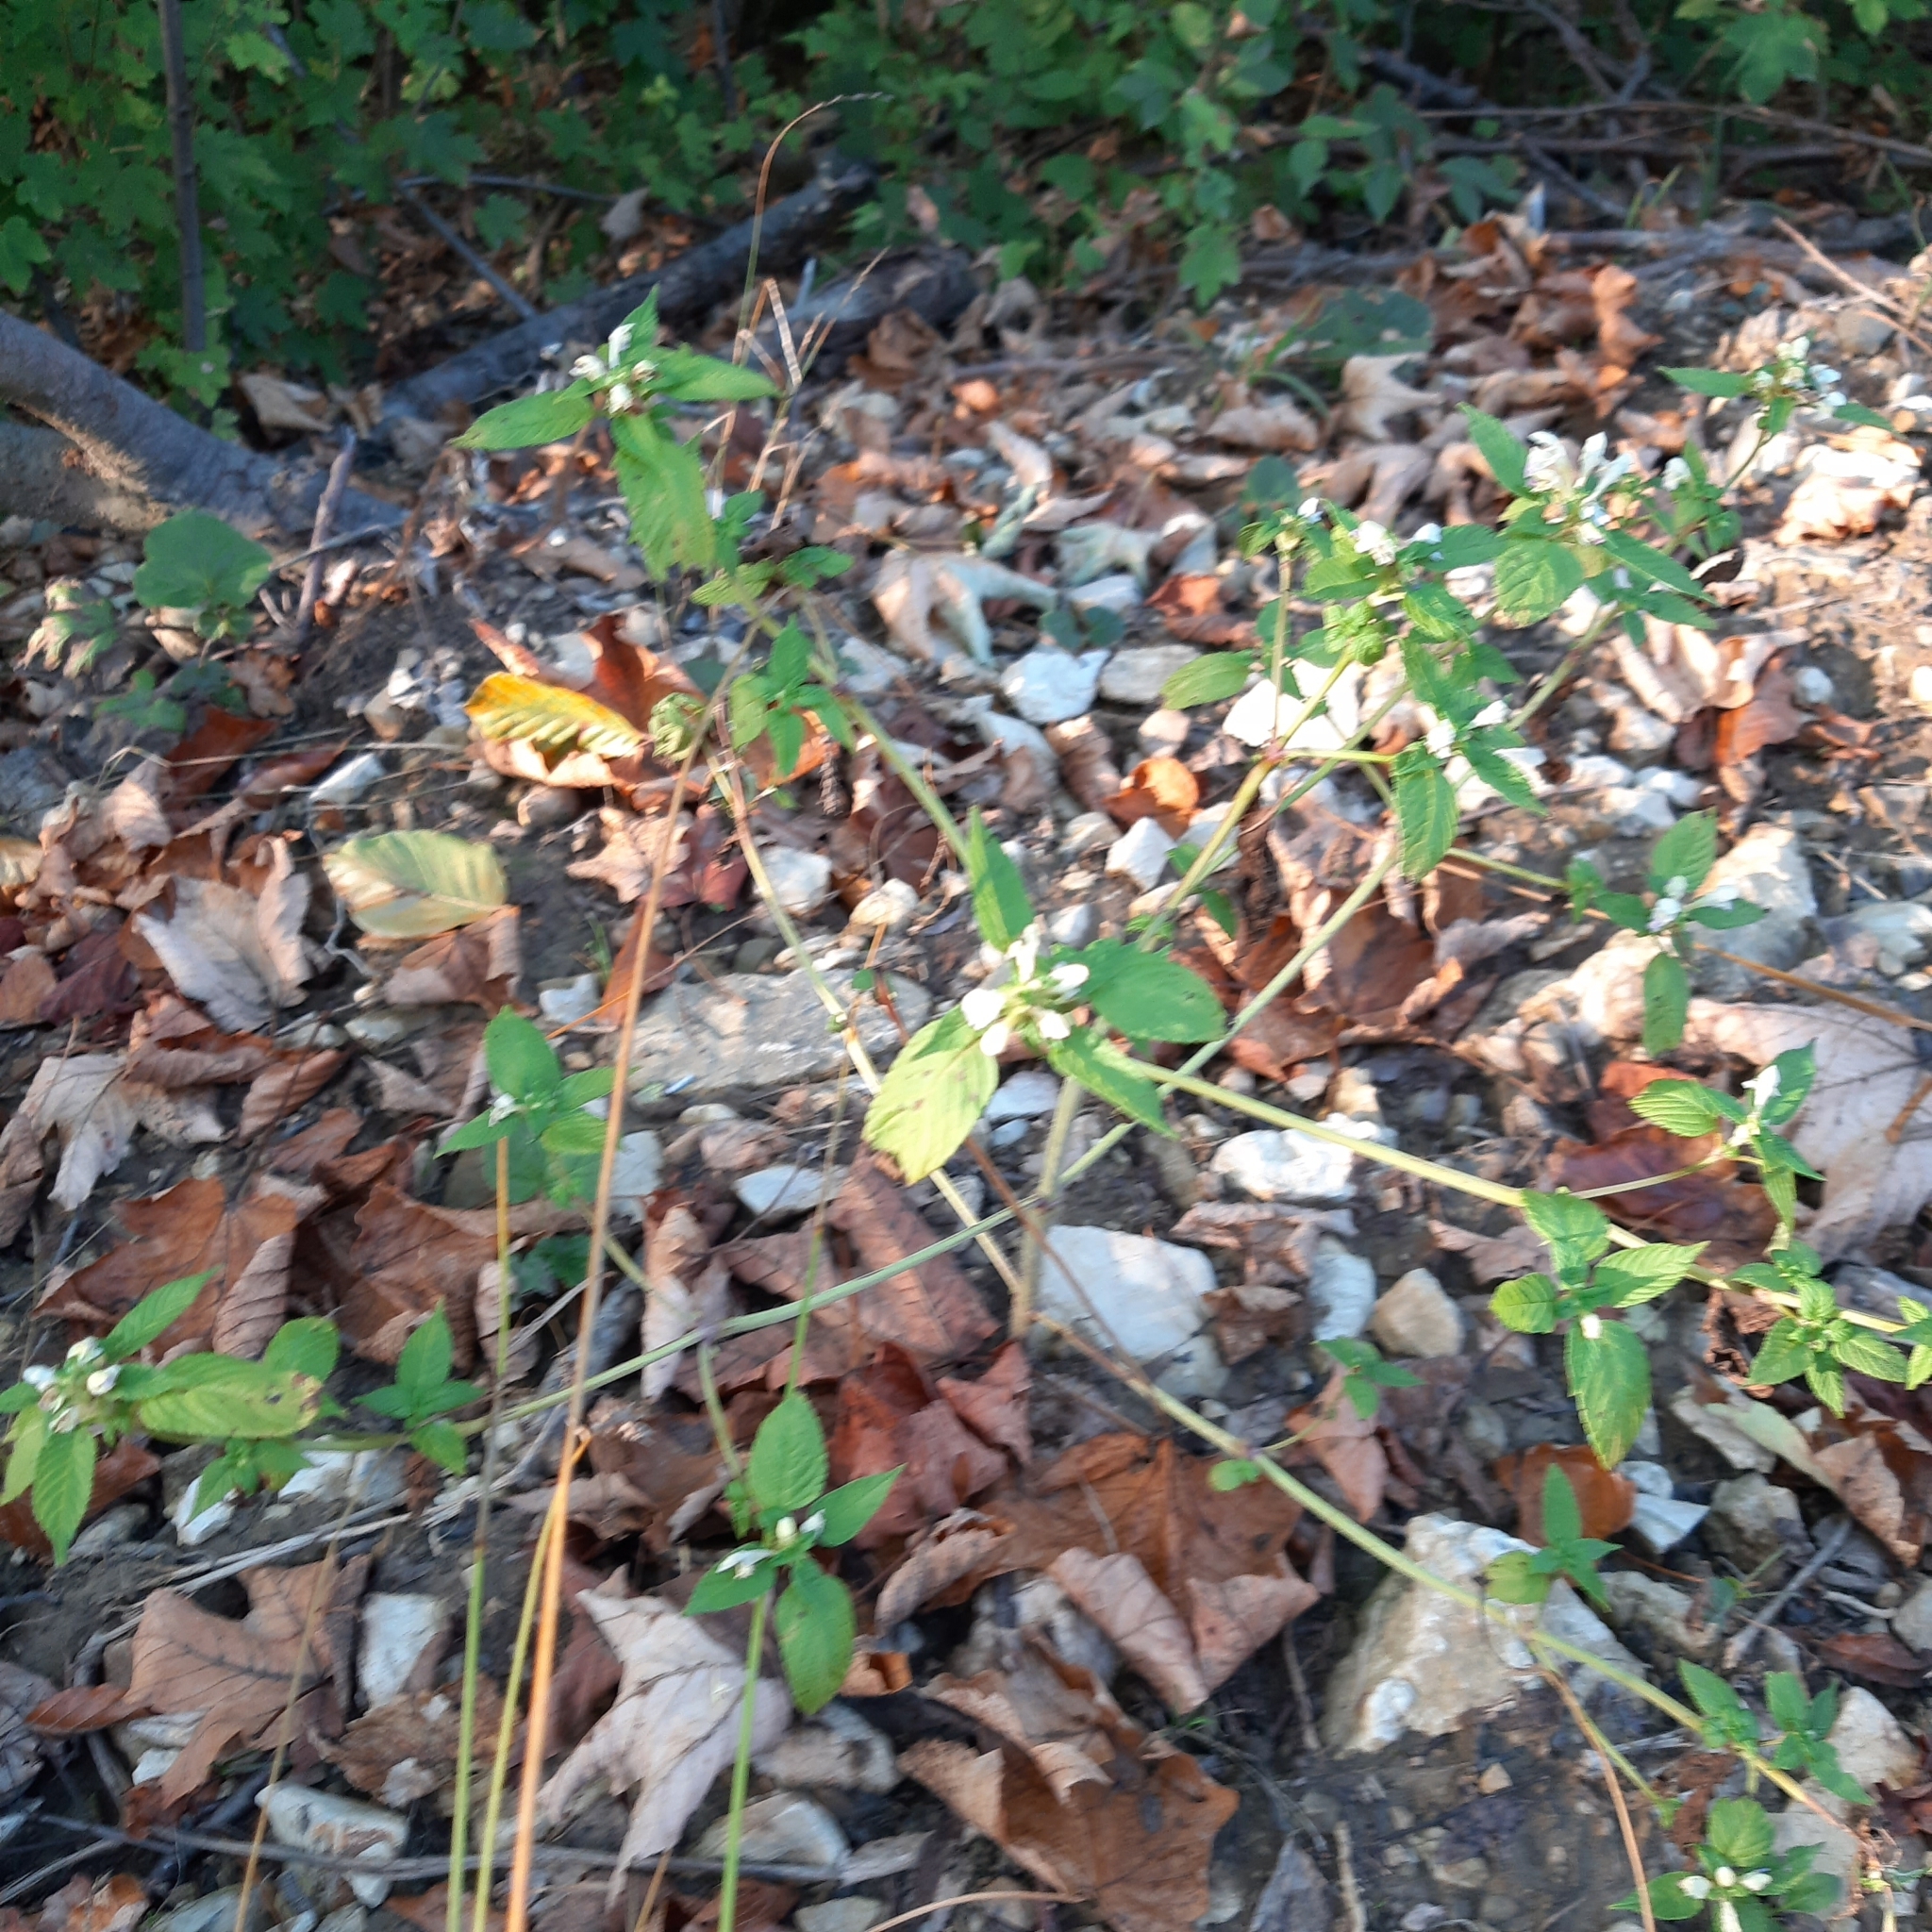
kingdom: Plantae
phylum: Tracheophyta
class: Magnoliopsida
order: Lamiales
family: Lamiaceae
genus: Galeopsis
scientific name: Galeopsis speciosa
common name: Large-flowered hemp-nettle
